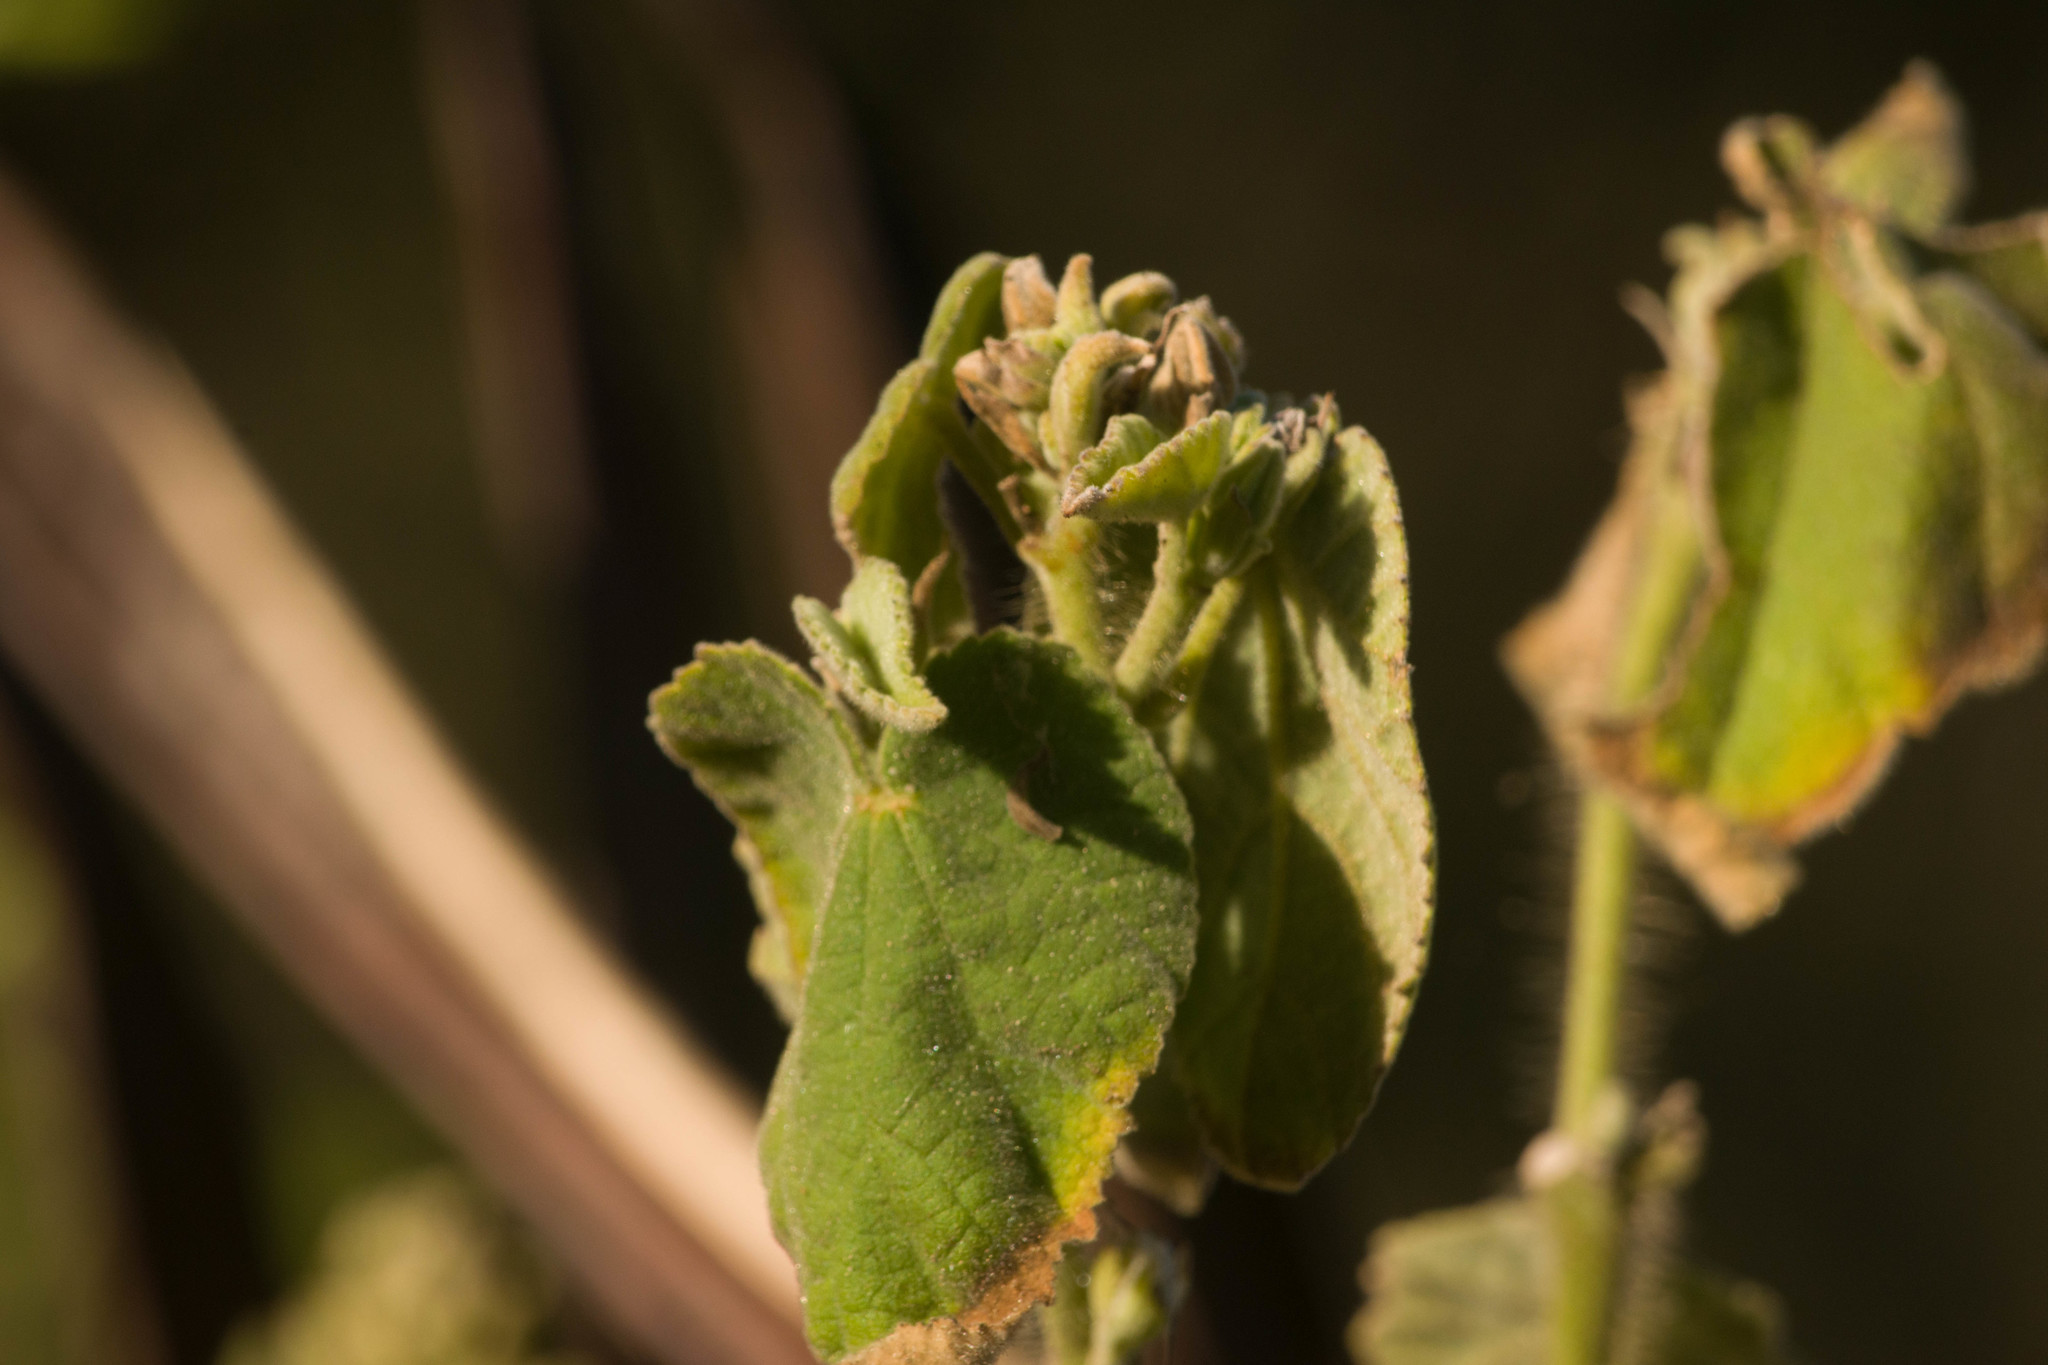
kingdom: Plantae
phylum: Tracheophyta
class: Magnoliopsida
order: Malvales
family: Malvaceae
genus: Abutilon
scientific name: Abutilon grandifolium
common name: Hairy abutilon
